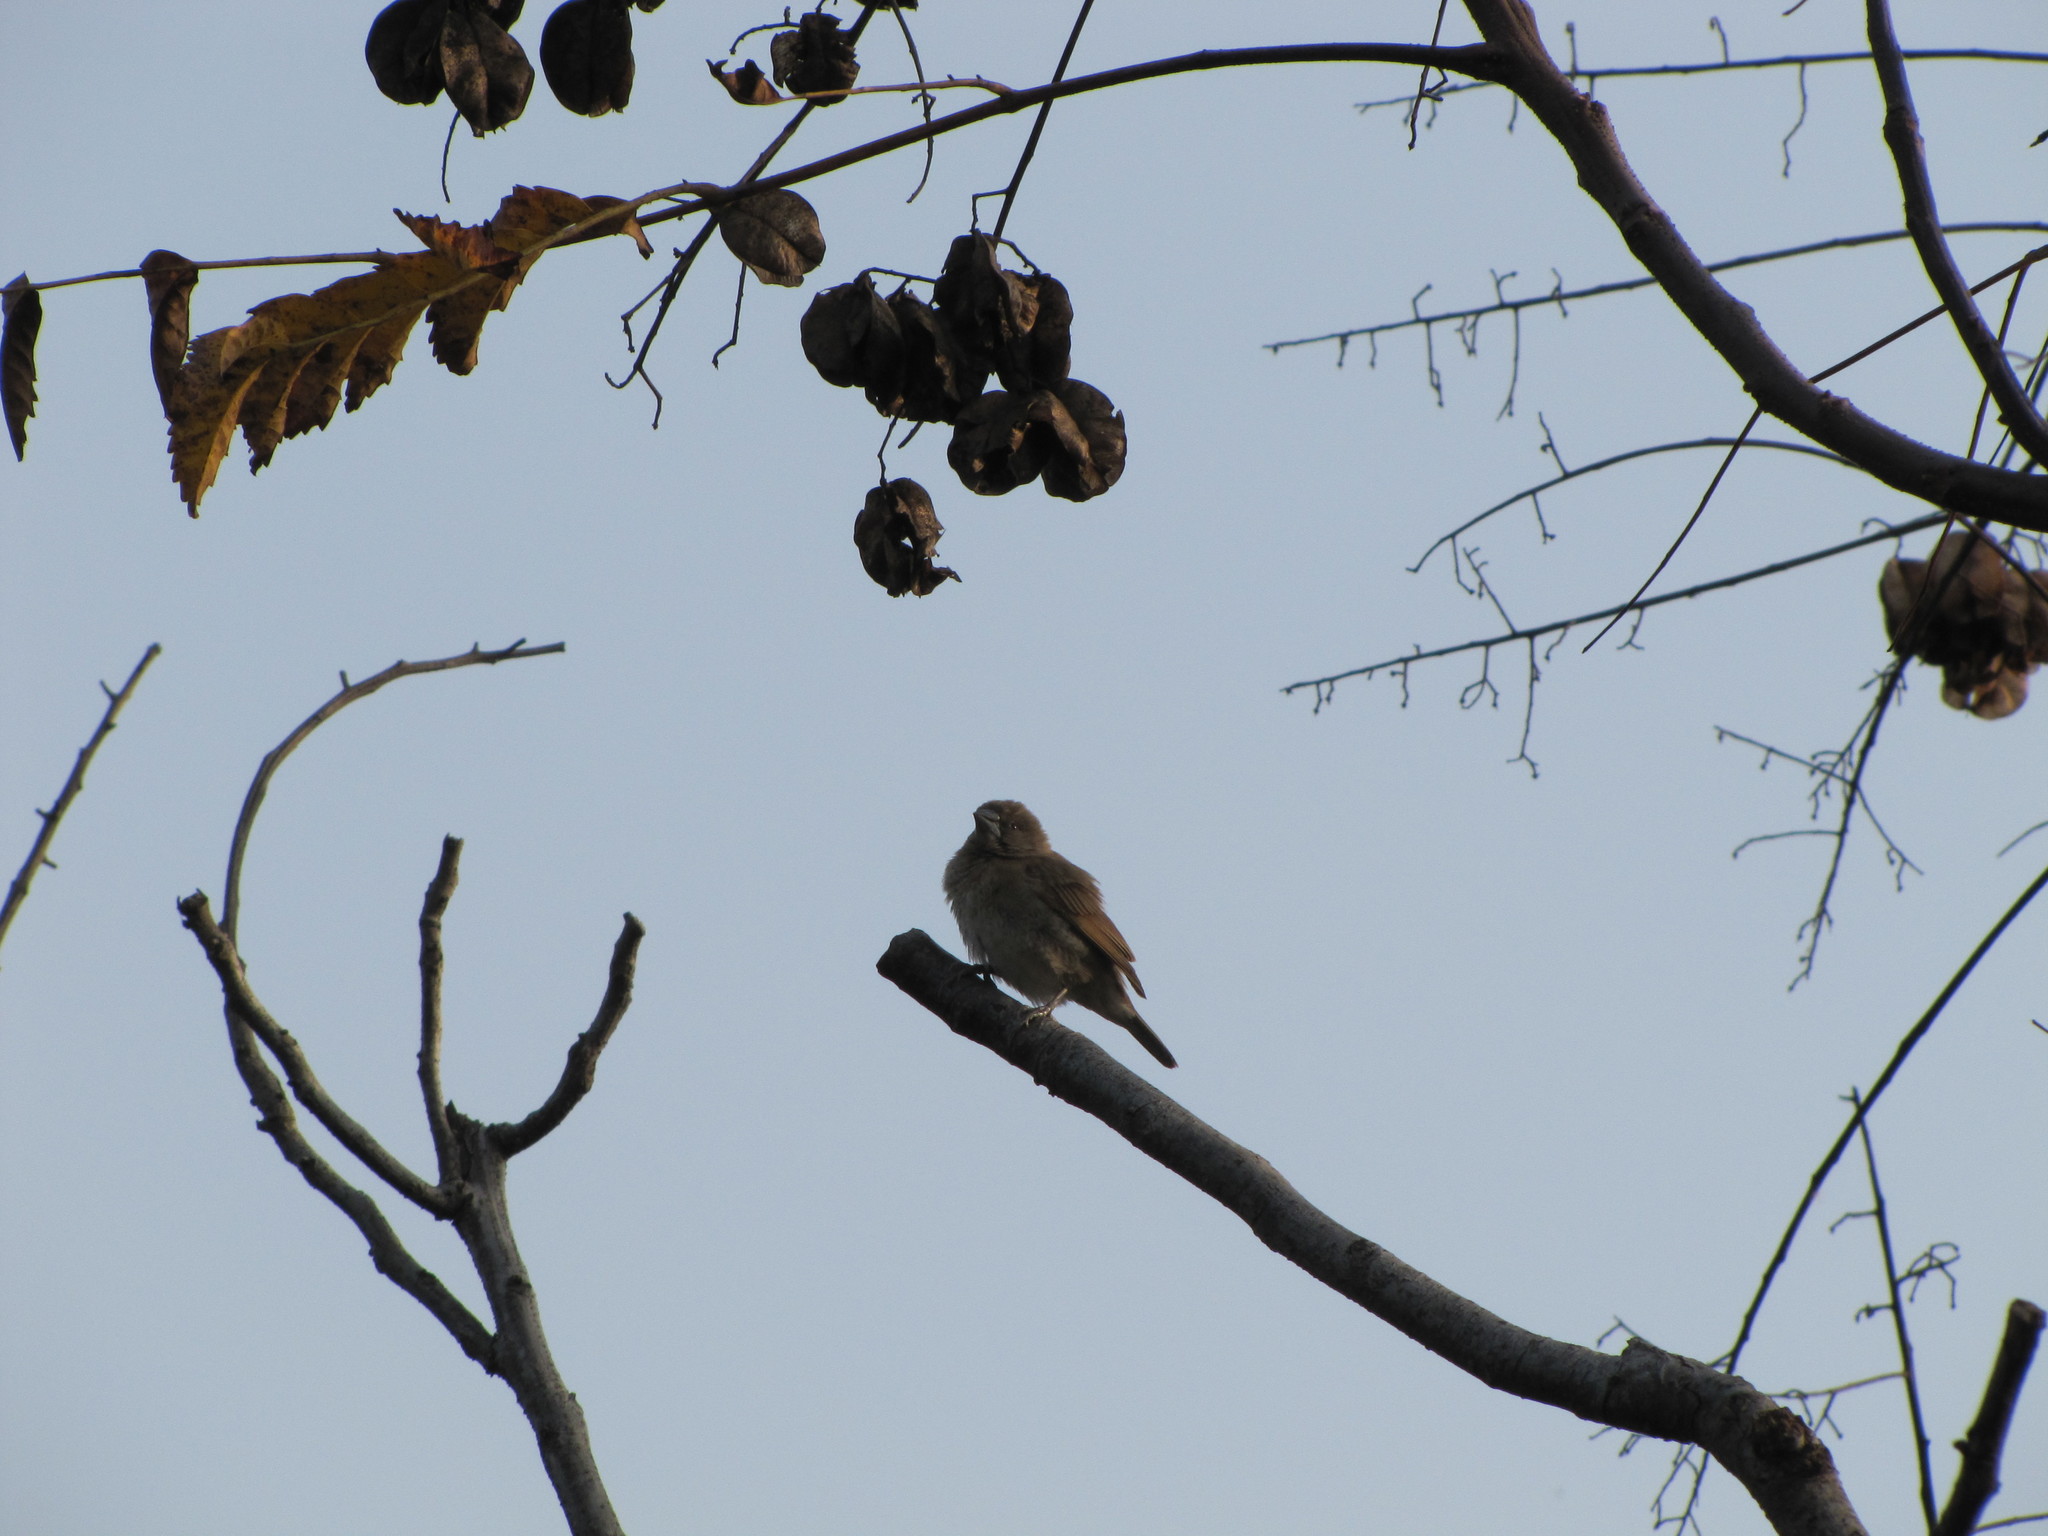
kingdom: Animalia
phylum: Chordata
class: Aves
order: Passeriformes
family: Estrildidae
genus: Lonchura
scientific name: Lonchura punctulata
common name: Scaly-breasted munia
